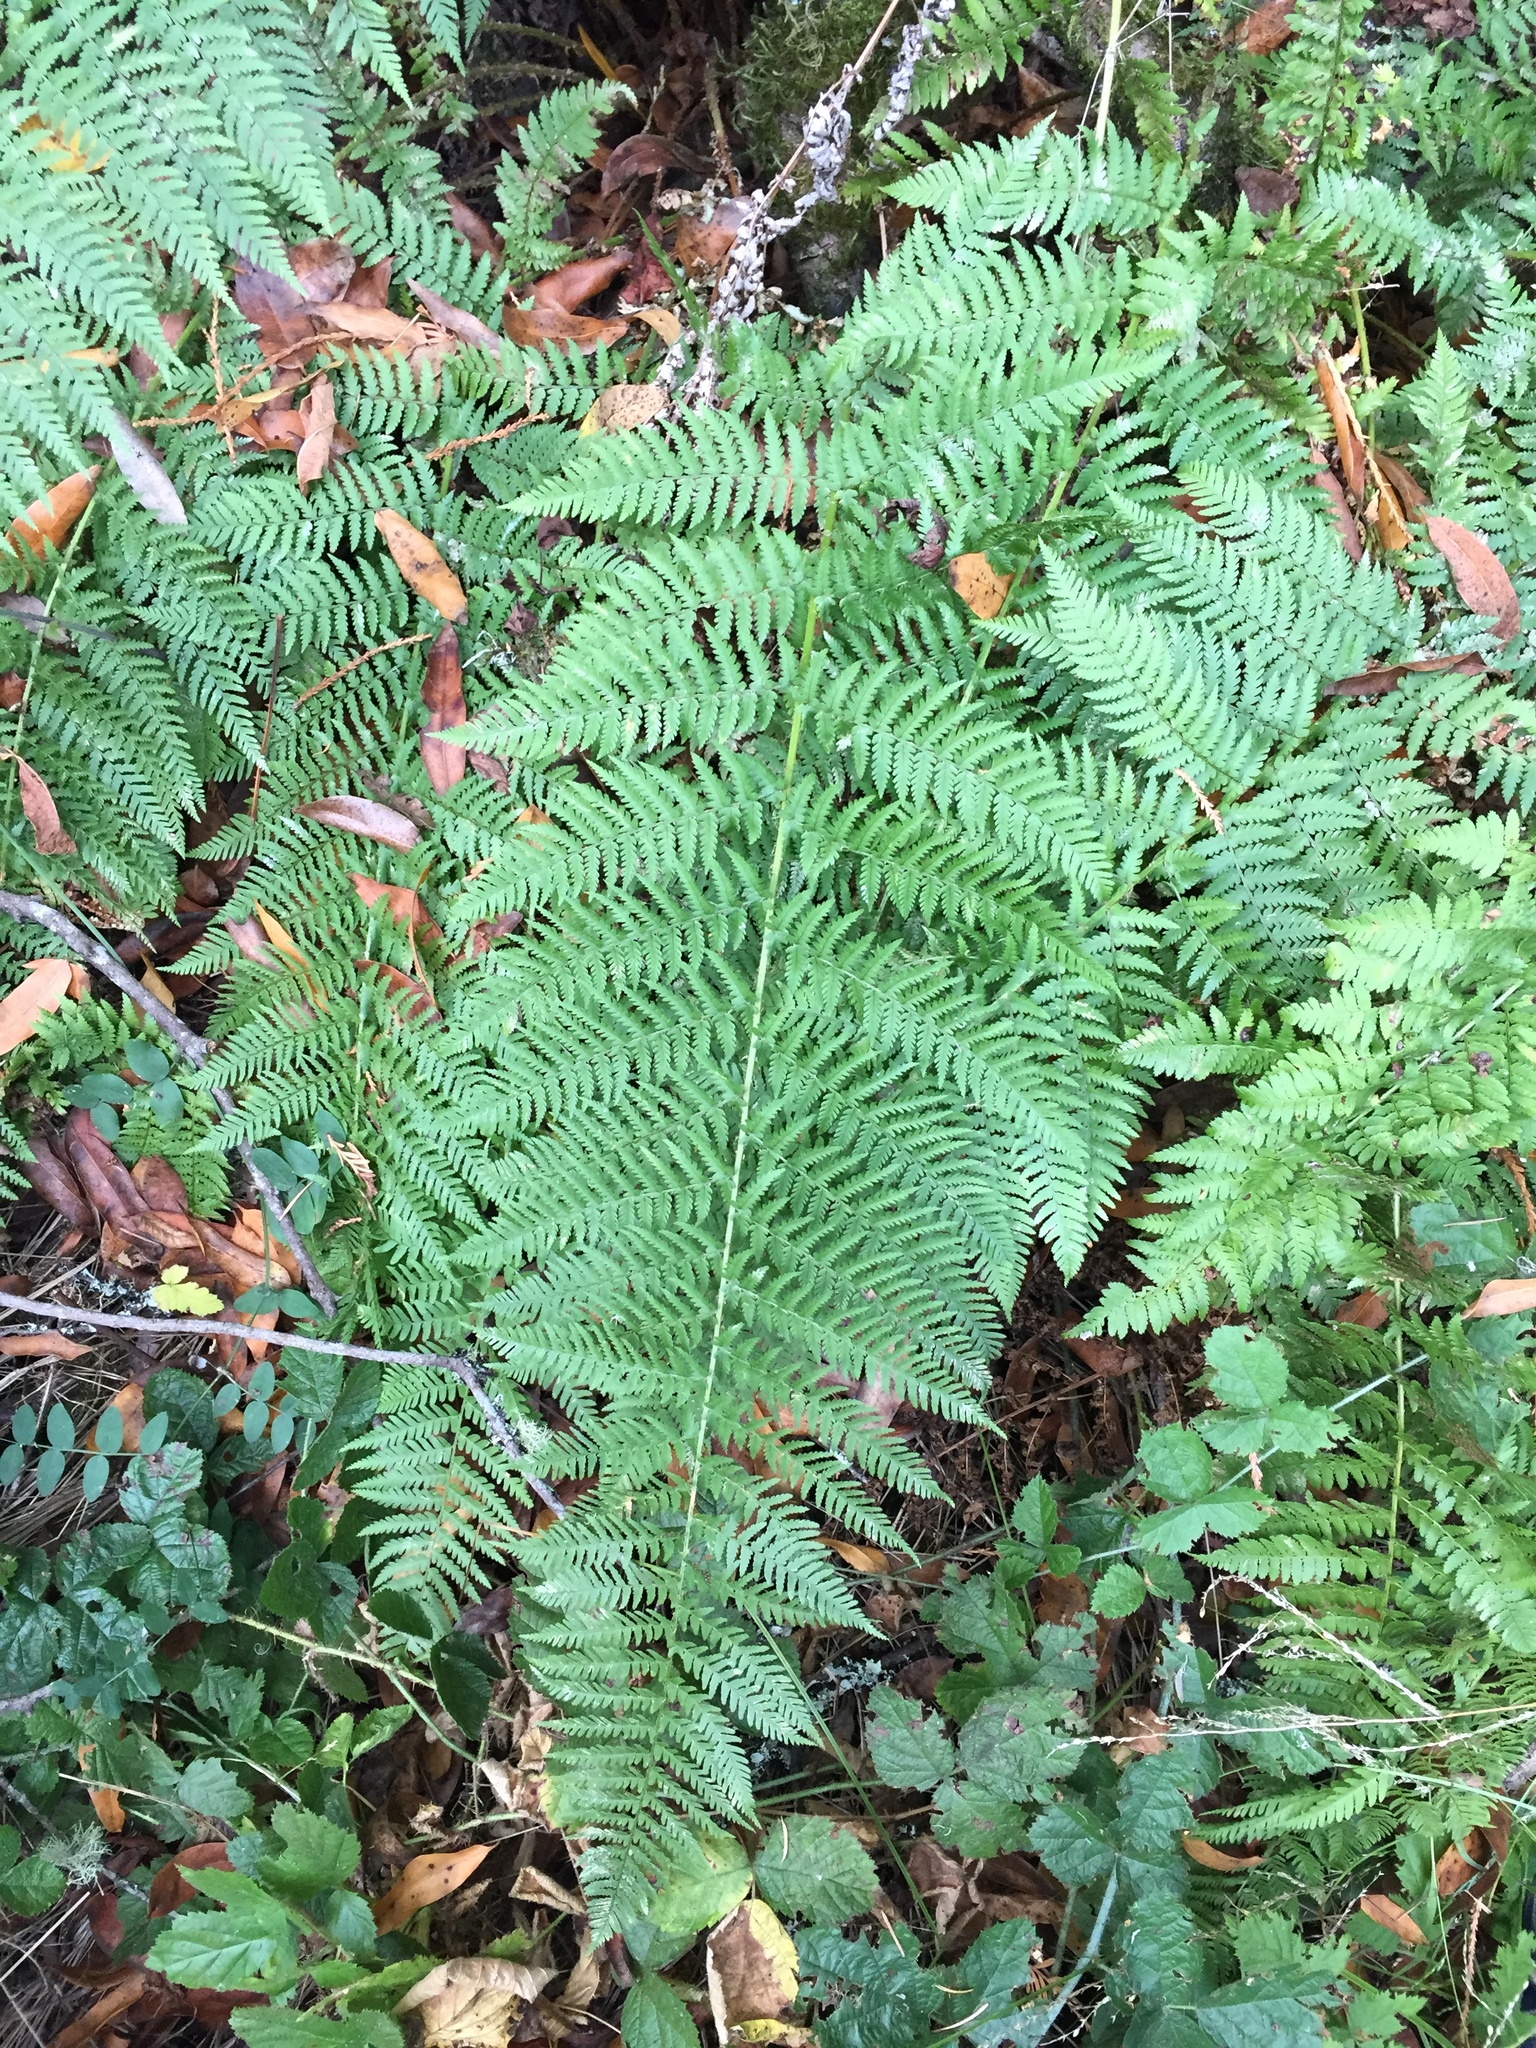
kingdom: Plantae
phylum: Tracheophyta
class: Polypodiopsida
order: Polypodiales
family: Dryopteridaceae
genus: Dryopteris
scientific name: Dryopteris arguta
